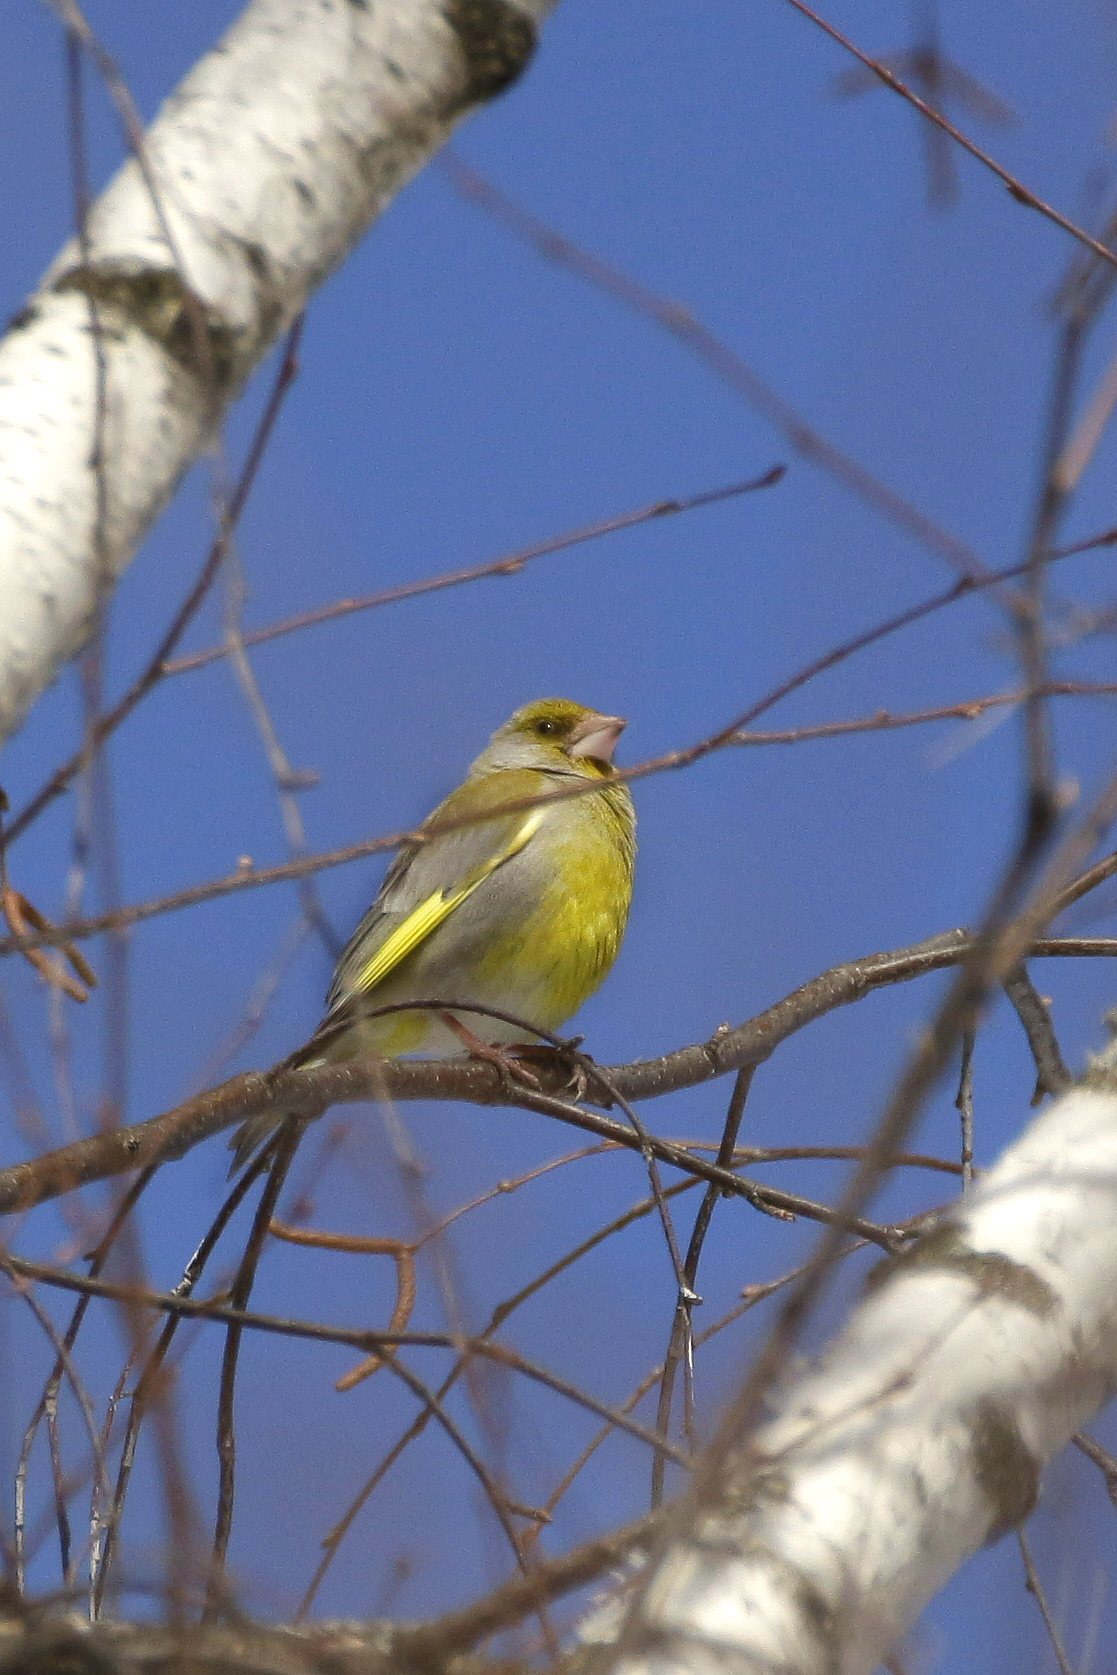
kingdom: Plantae
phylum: Tracheophyta
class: Liliopsida
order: Poales
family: Poaceae
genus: Chloris
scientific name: Chloris chloris
